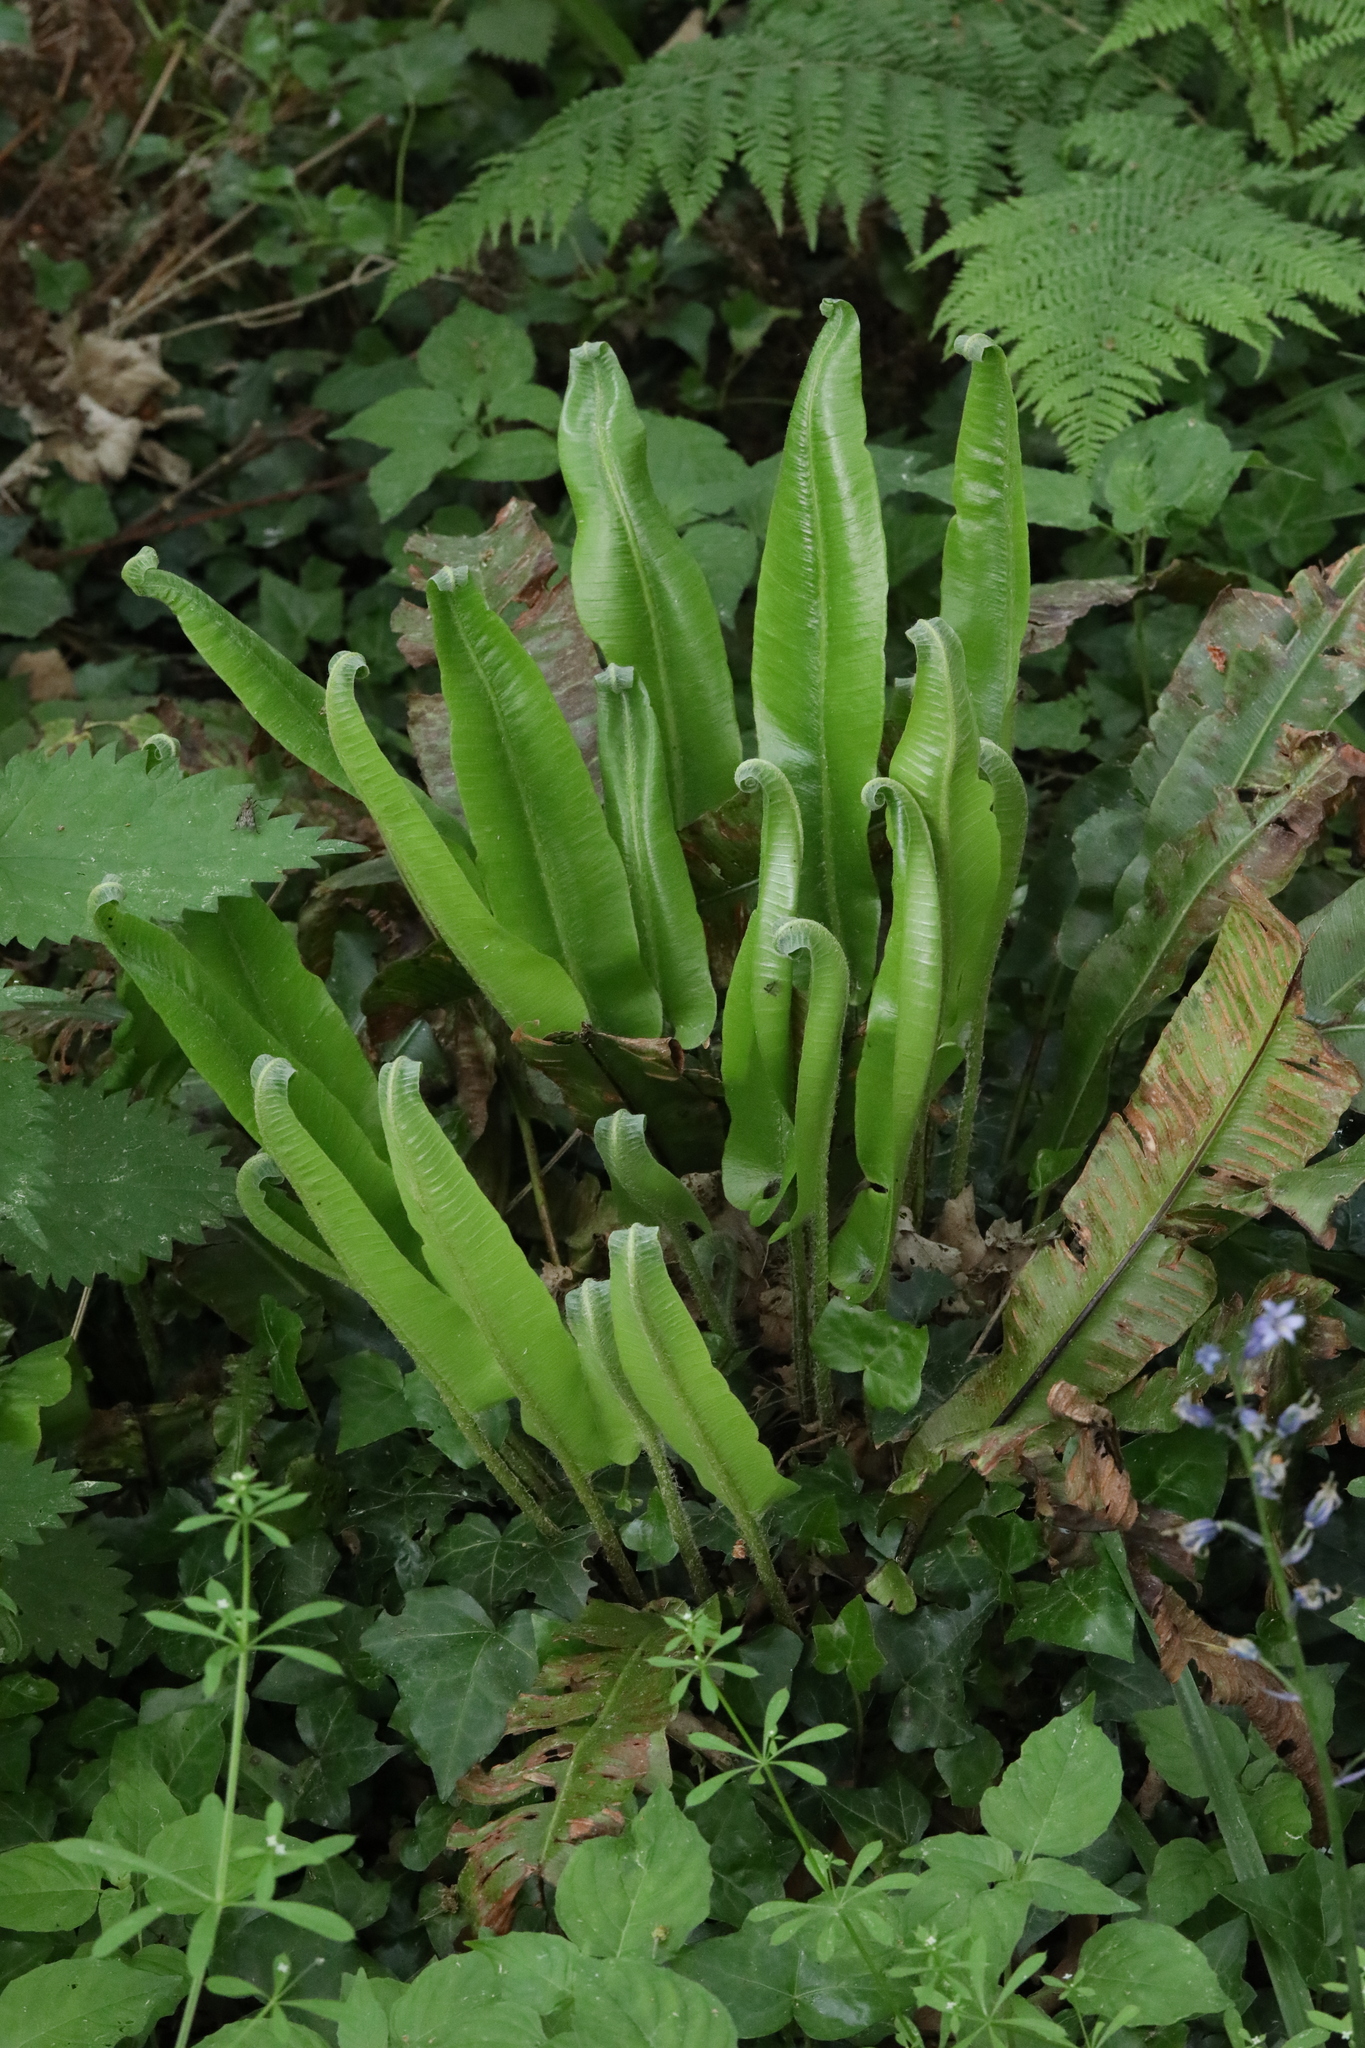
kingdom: Plantae
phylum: Tracheophyta
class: Polypodiopsida
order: Polypodiales
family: Aspleniaceae
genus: Asplenium
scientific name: Asplenium scolopendrium
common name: Hart's-tongue fern
